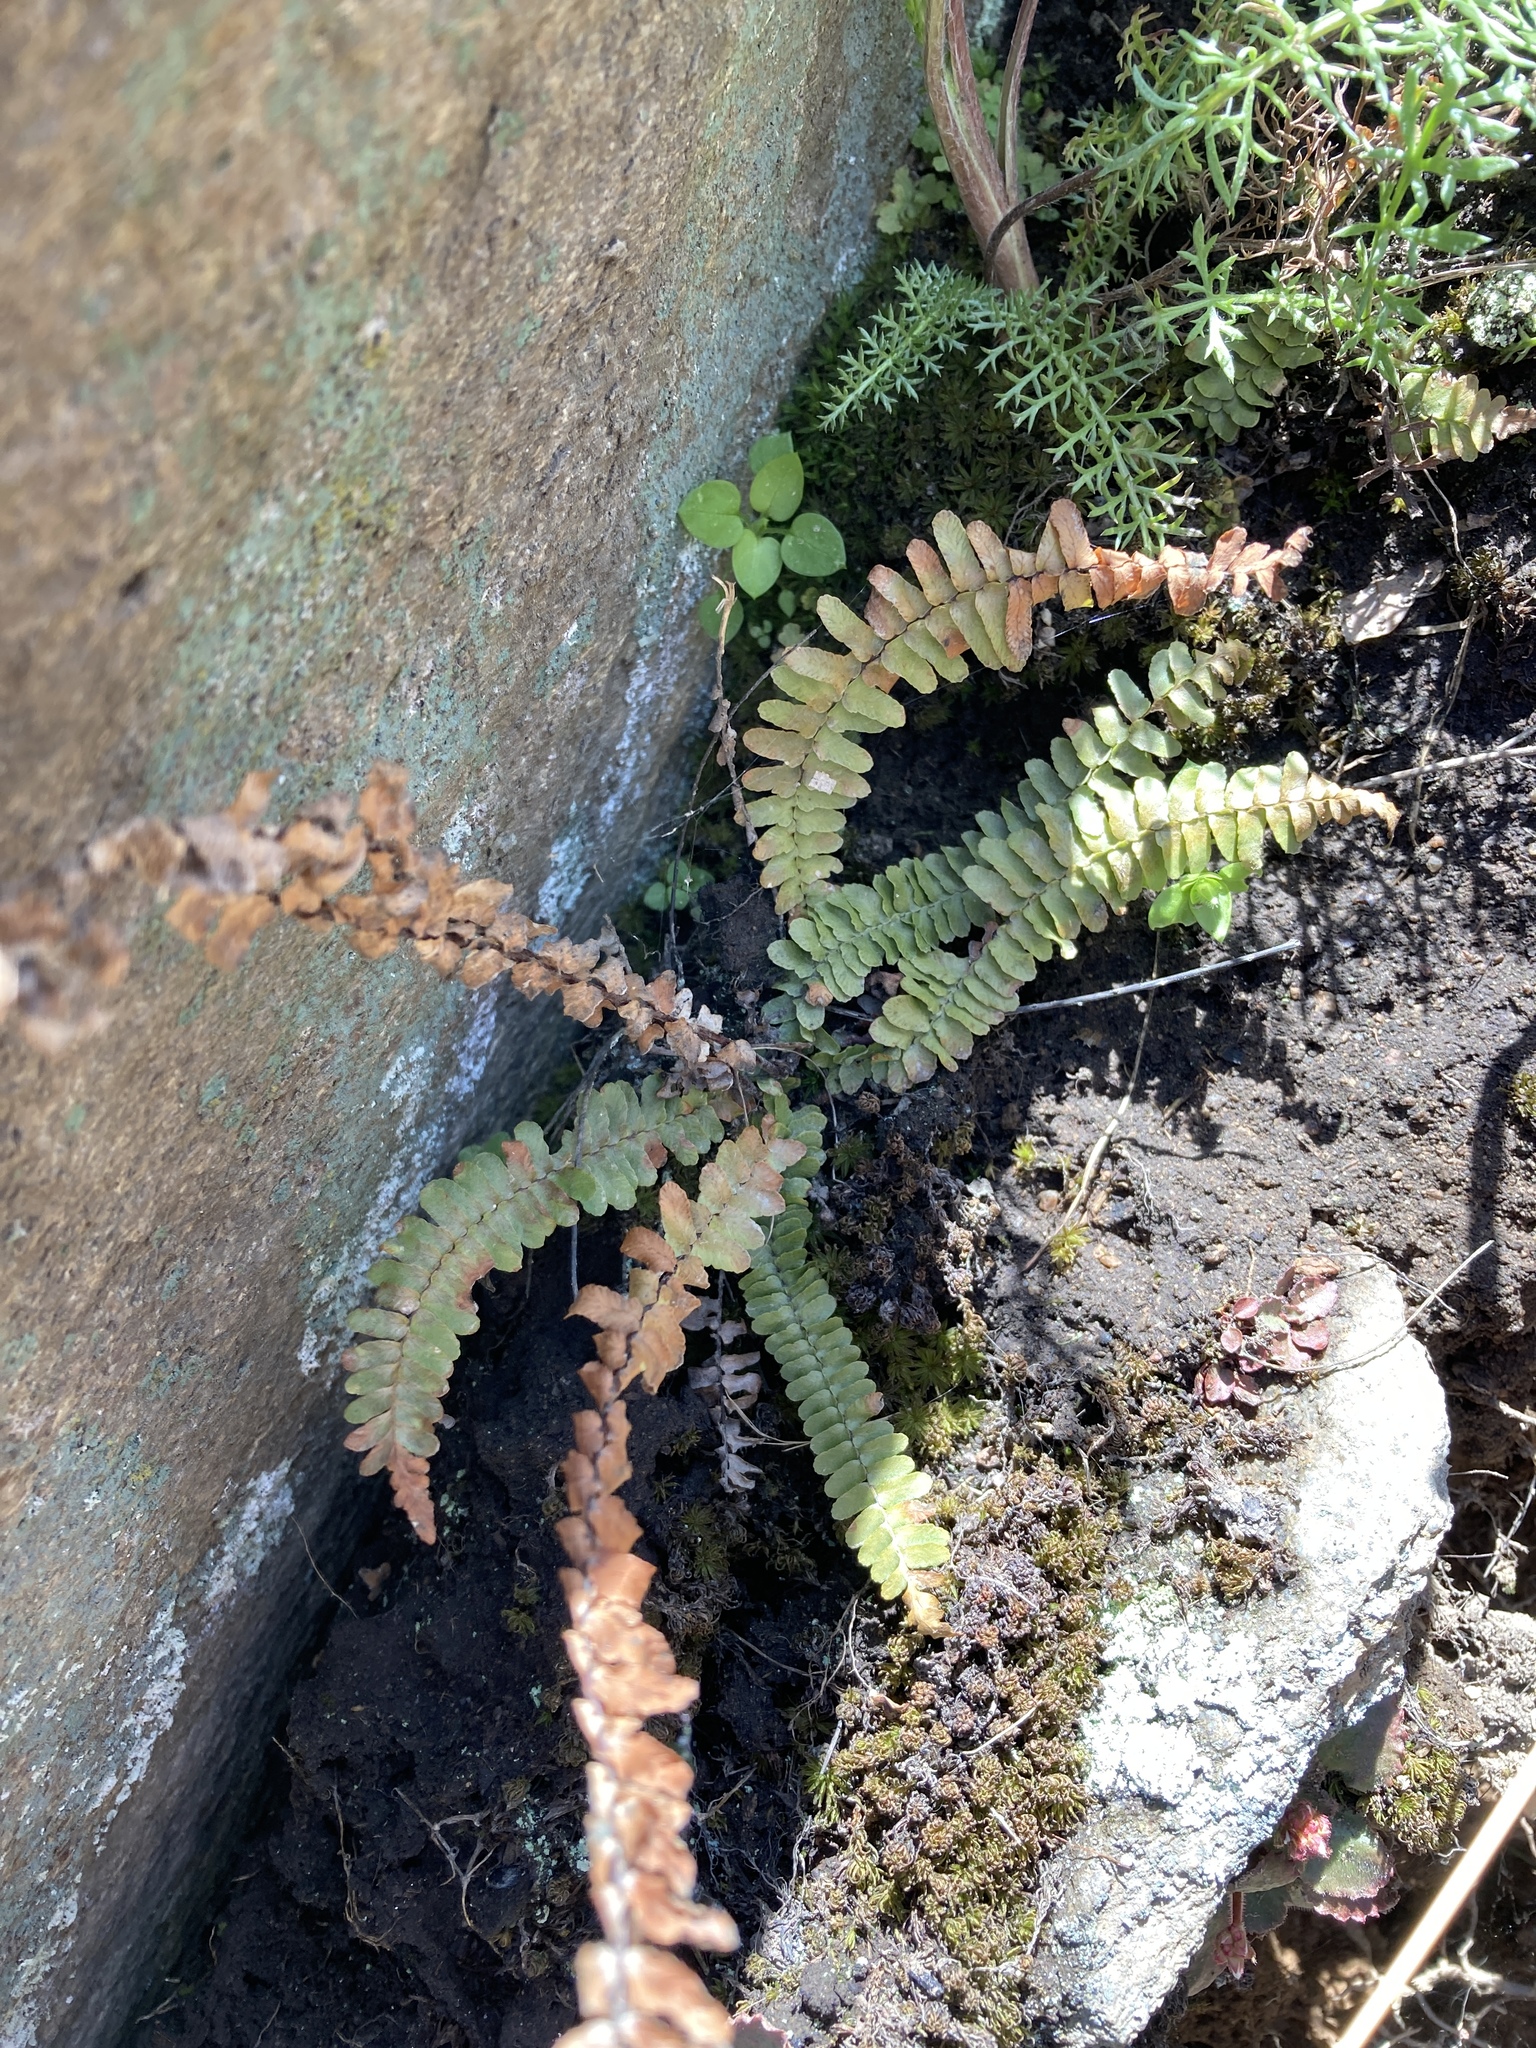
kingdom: Plantae
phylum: Tracheophyta
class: Polypodiopsida
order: Polypodiales
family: Aspleniaceae
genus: Asplenium
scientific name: Asplenium platyneuron
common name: Ebony spleenwort
